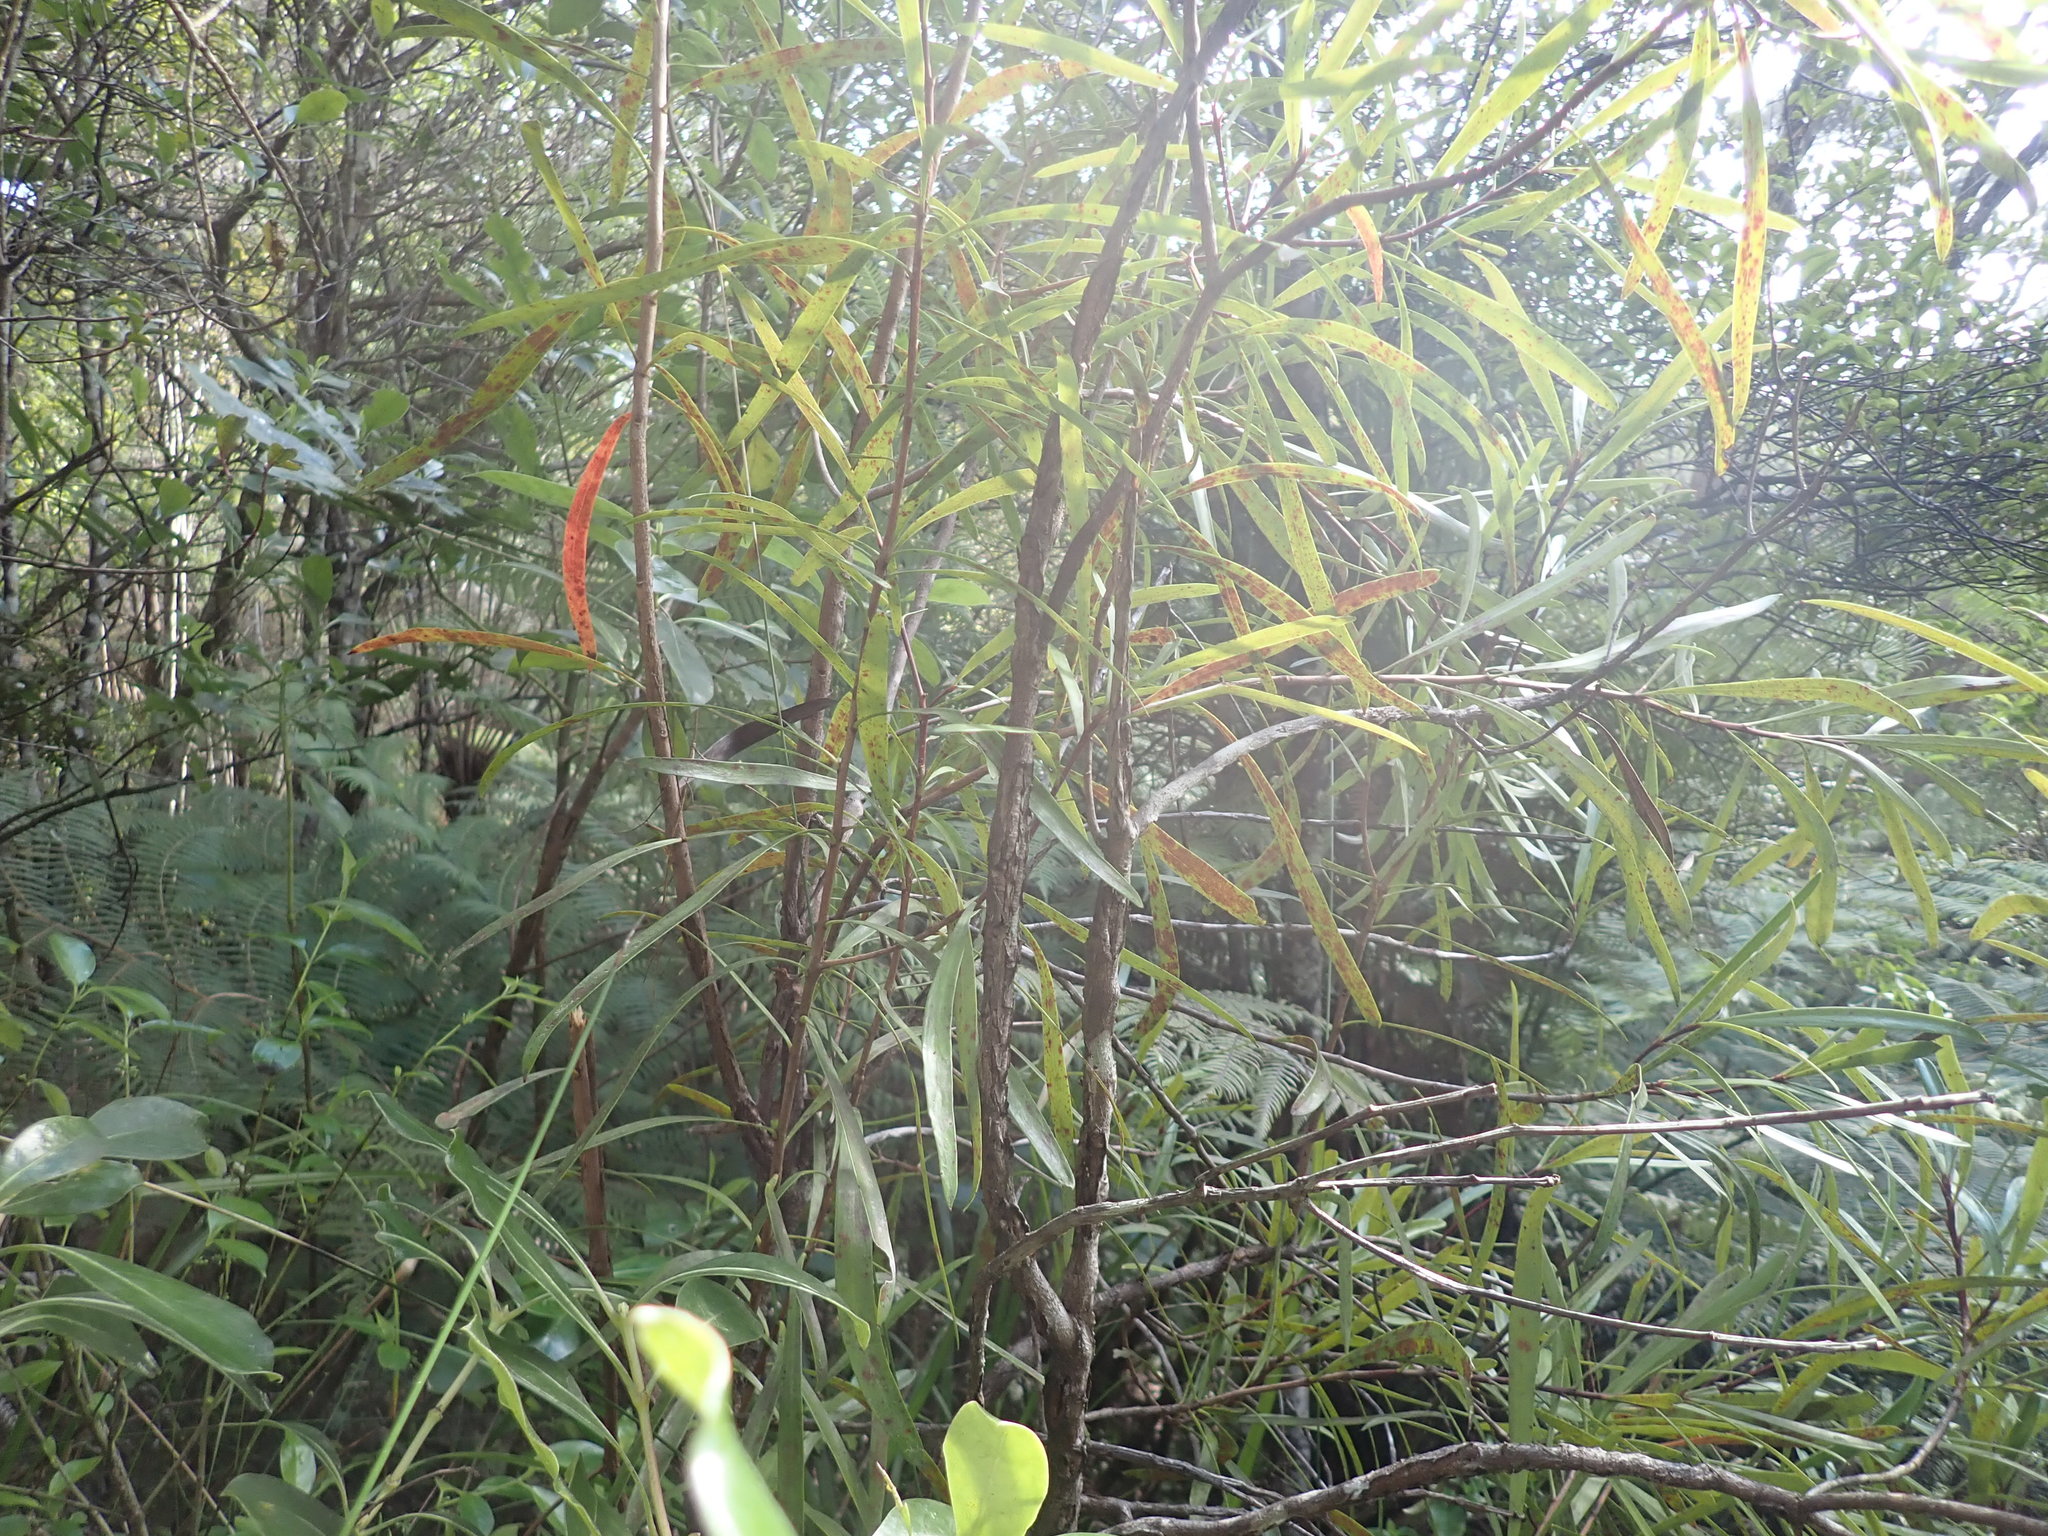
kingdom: Plantae
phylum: Tracheophyta
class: Magnoliopsida
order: Proteales
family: Proteaceae
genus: Toronia
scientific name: Toronia toru
